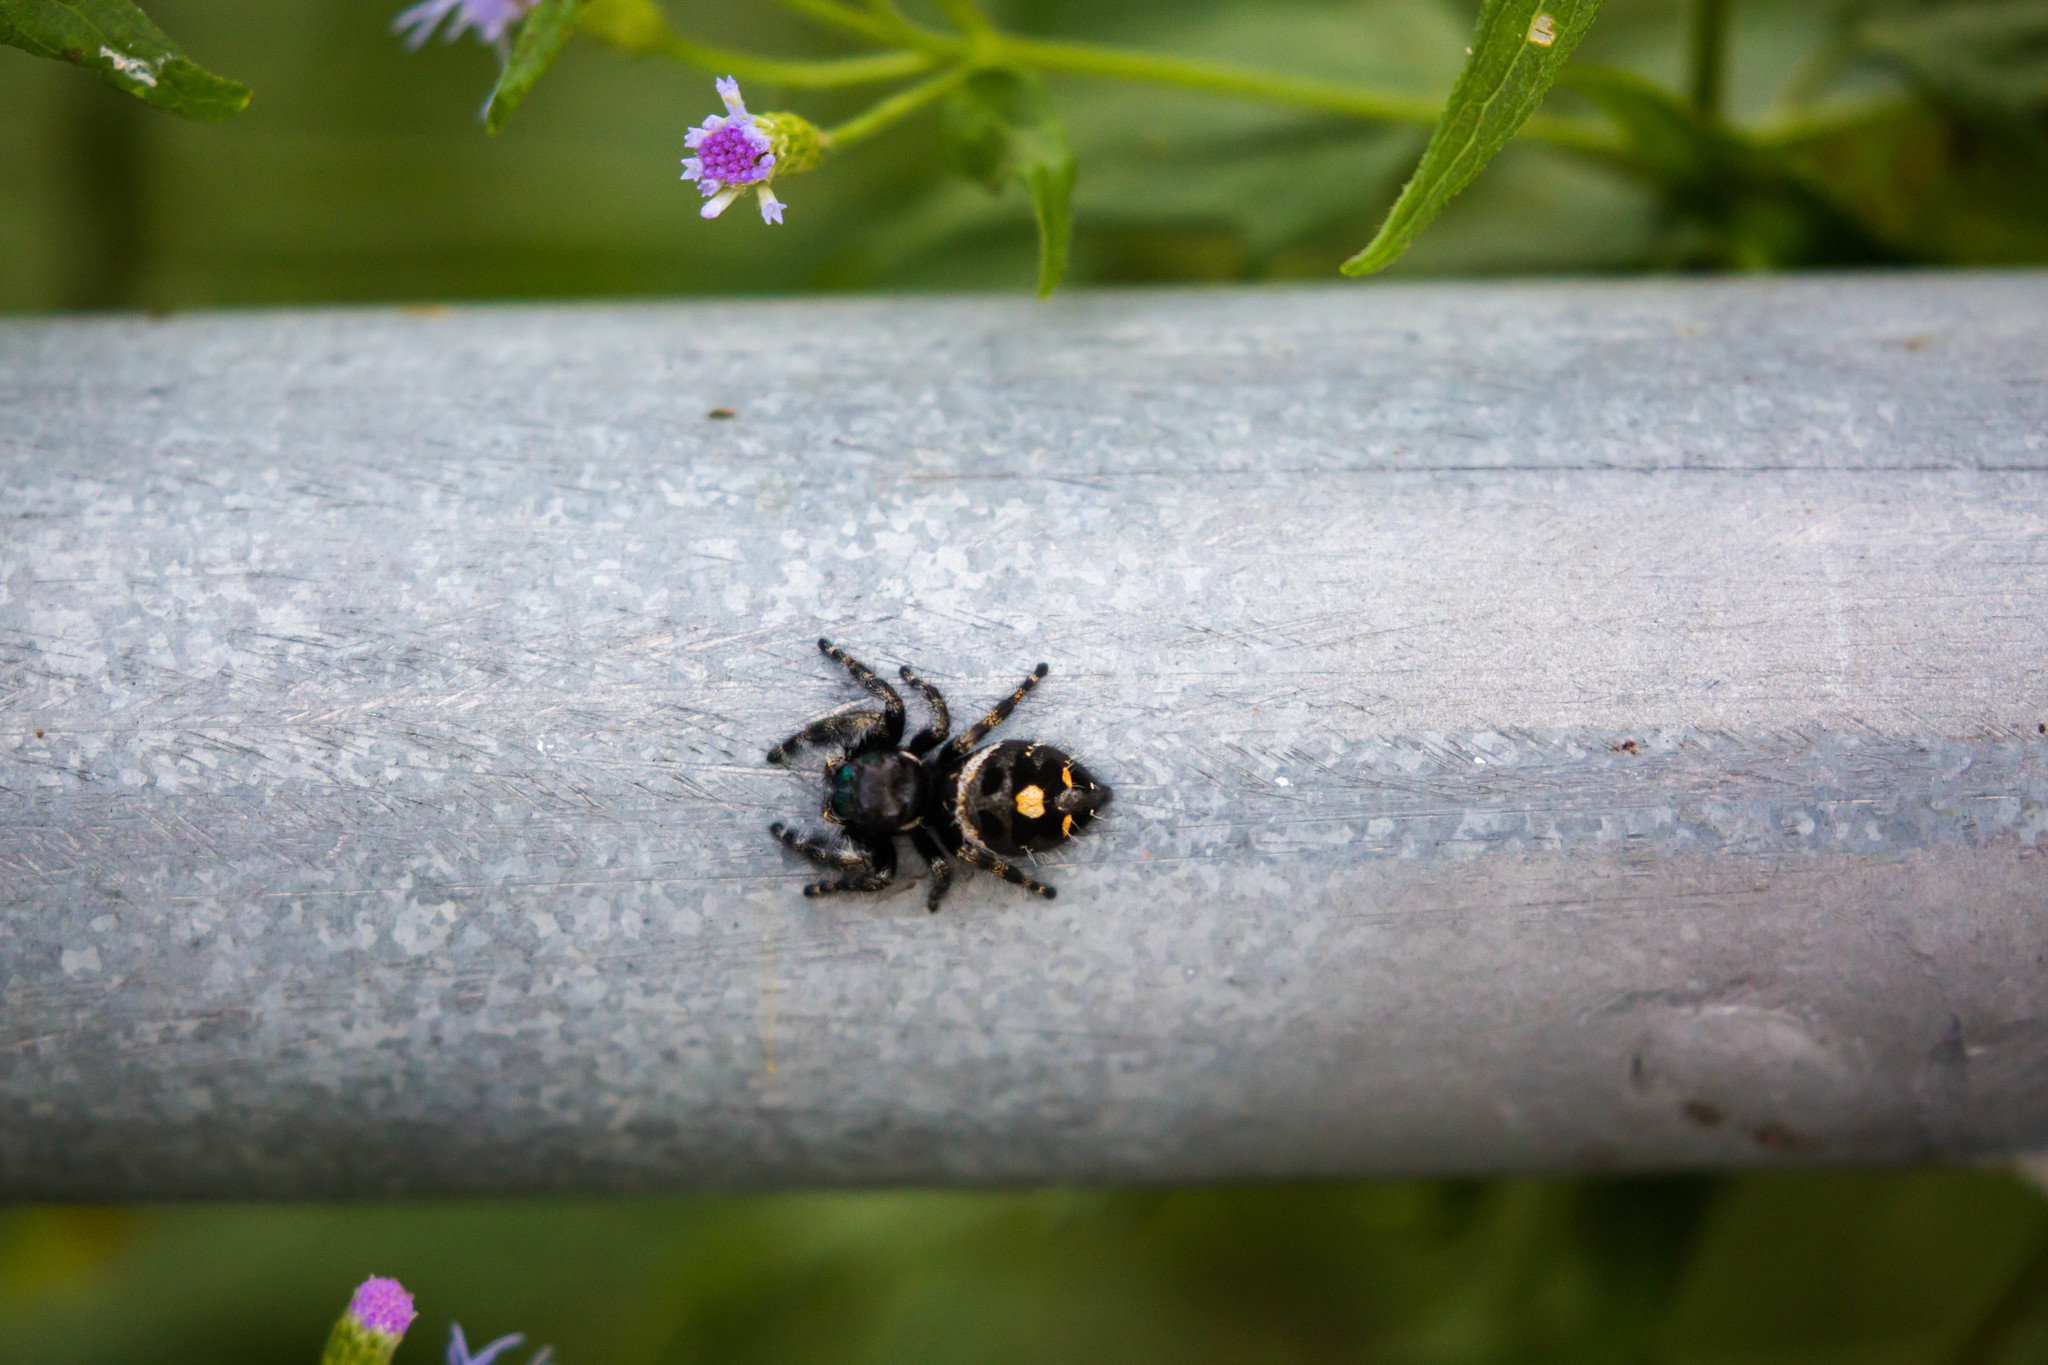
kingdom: Animalia
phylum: Arthropoda
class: Arachnida
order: Araneae
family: Salticidae
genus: Phidippus
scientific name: Phidippus audax
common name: Bold jumper
